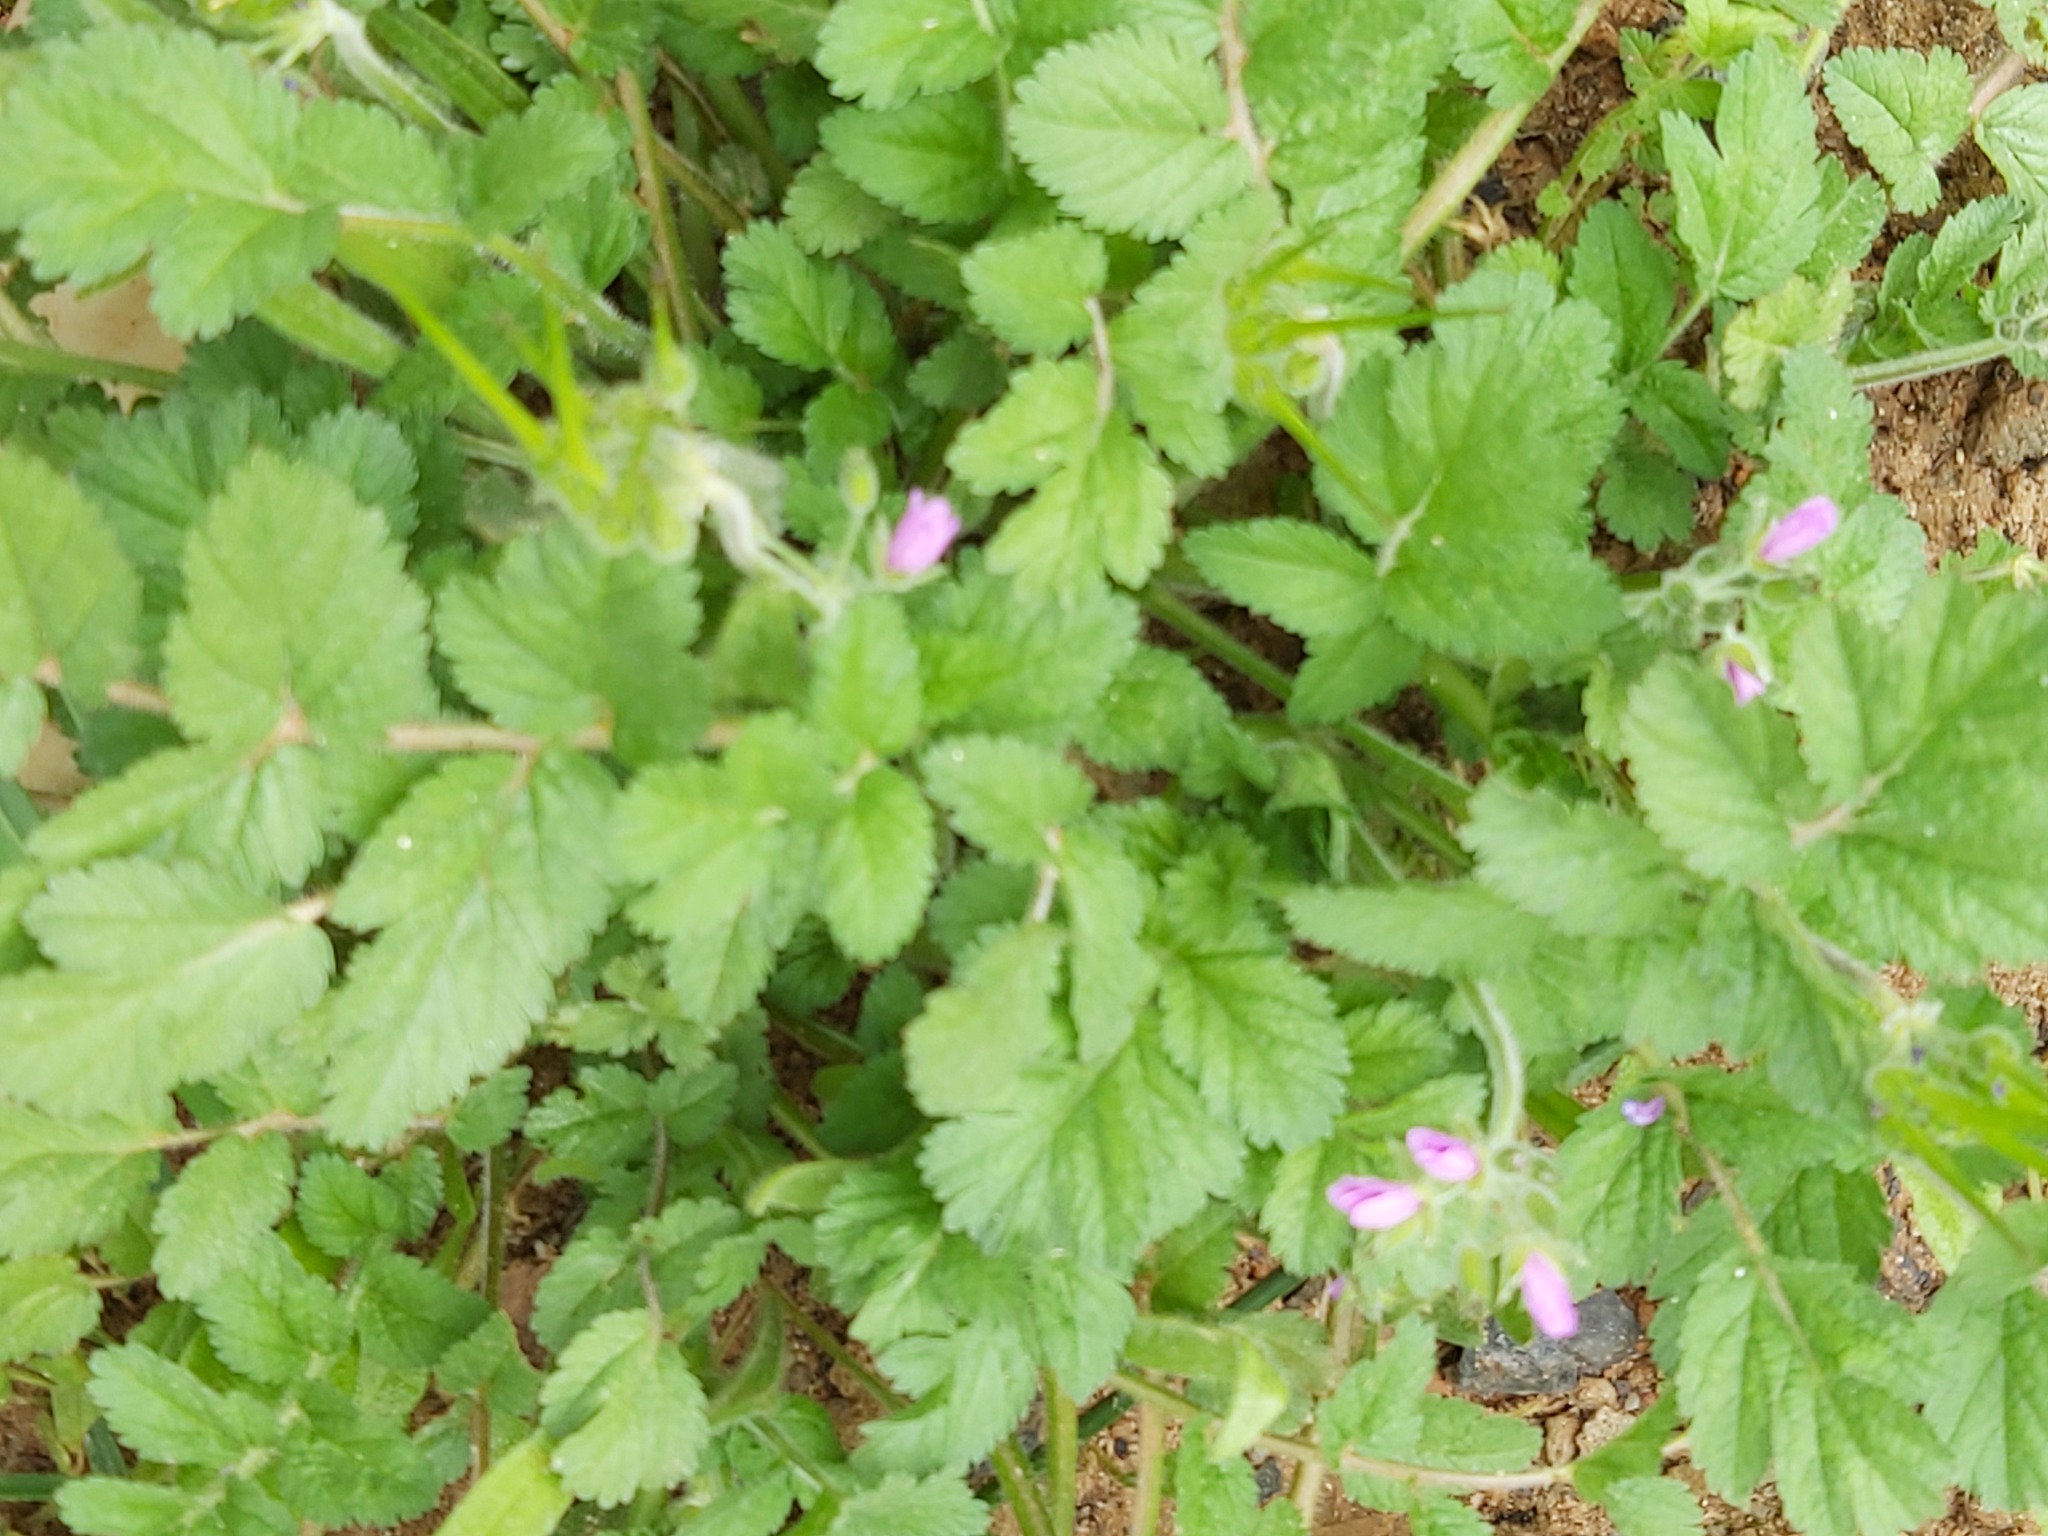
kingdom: Plantae
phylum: Tracheophyta
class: Magnoliopsida
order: Geraniales
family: Geraniaceae
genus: Erodium
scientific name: Erodium moschatum
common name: Musk stork's-bill
